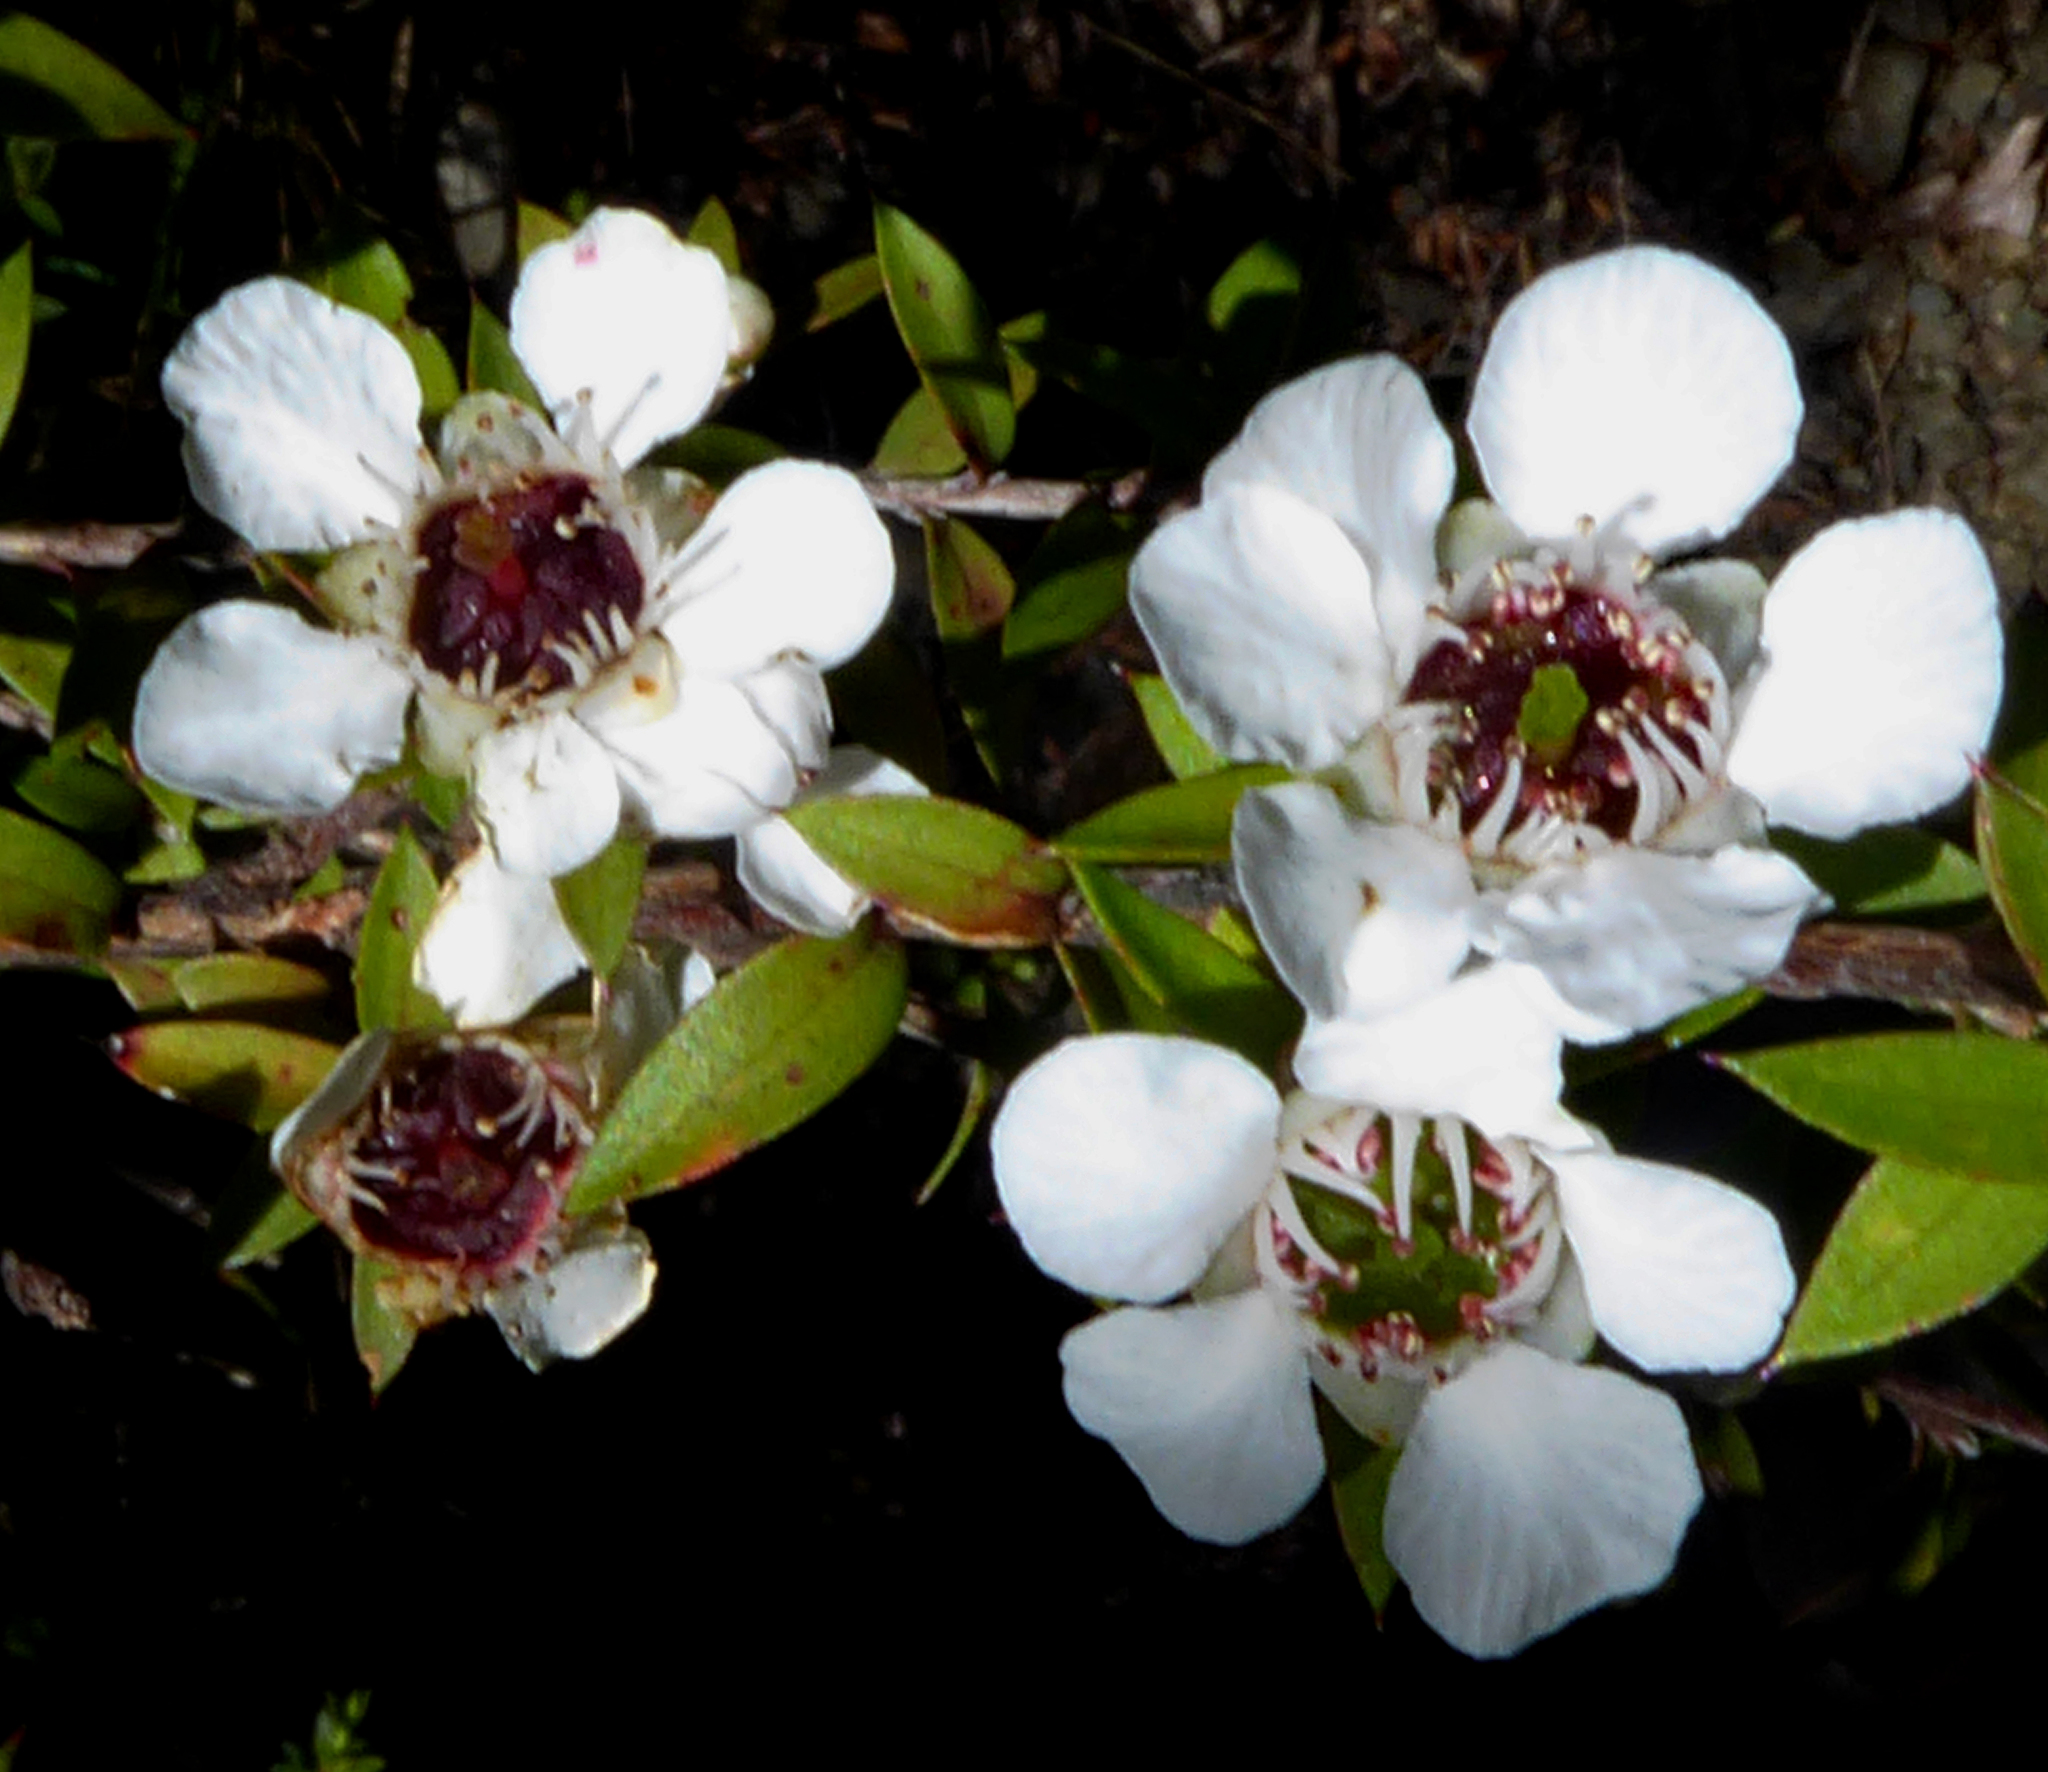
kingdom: Plantae
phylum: Tracheophyta
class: Magnoliopsida
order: Myrtales
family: Myrtaceae
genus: Leptospermum
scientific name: Leptospermum scoparium
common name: Broom tea-tree
